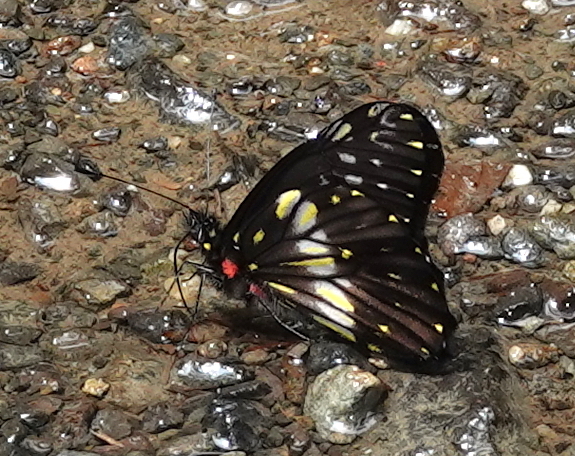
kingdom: Animalia
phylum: Arthropoda
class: Insecta
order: Lepidoptera
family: Pieridae
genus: Catasticta
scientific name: Catasticta sisamnus
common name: Sisamnus dartwhite
